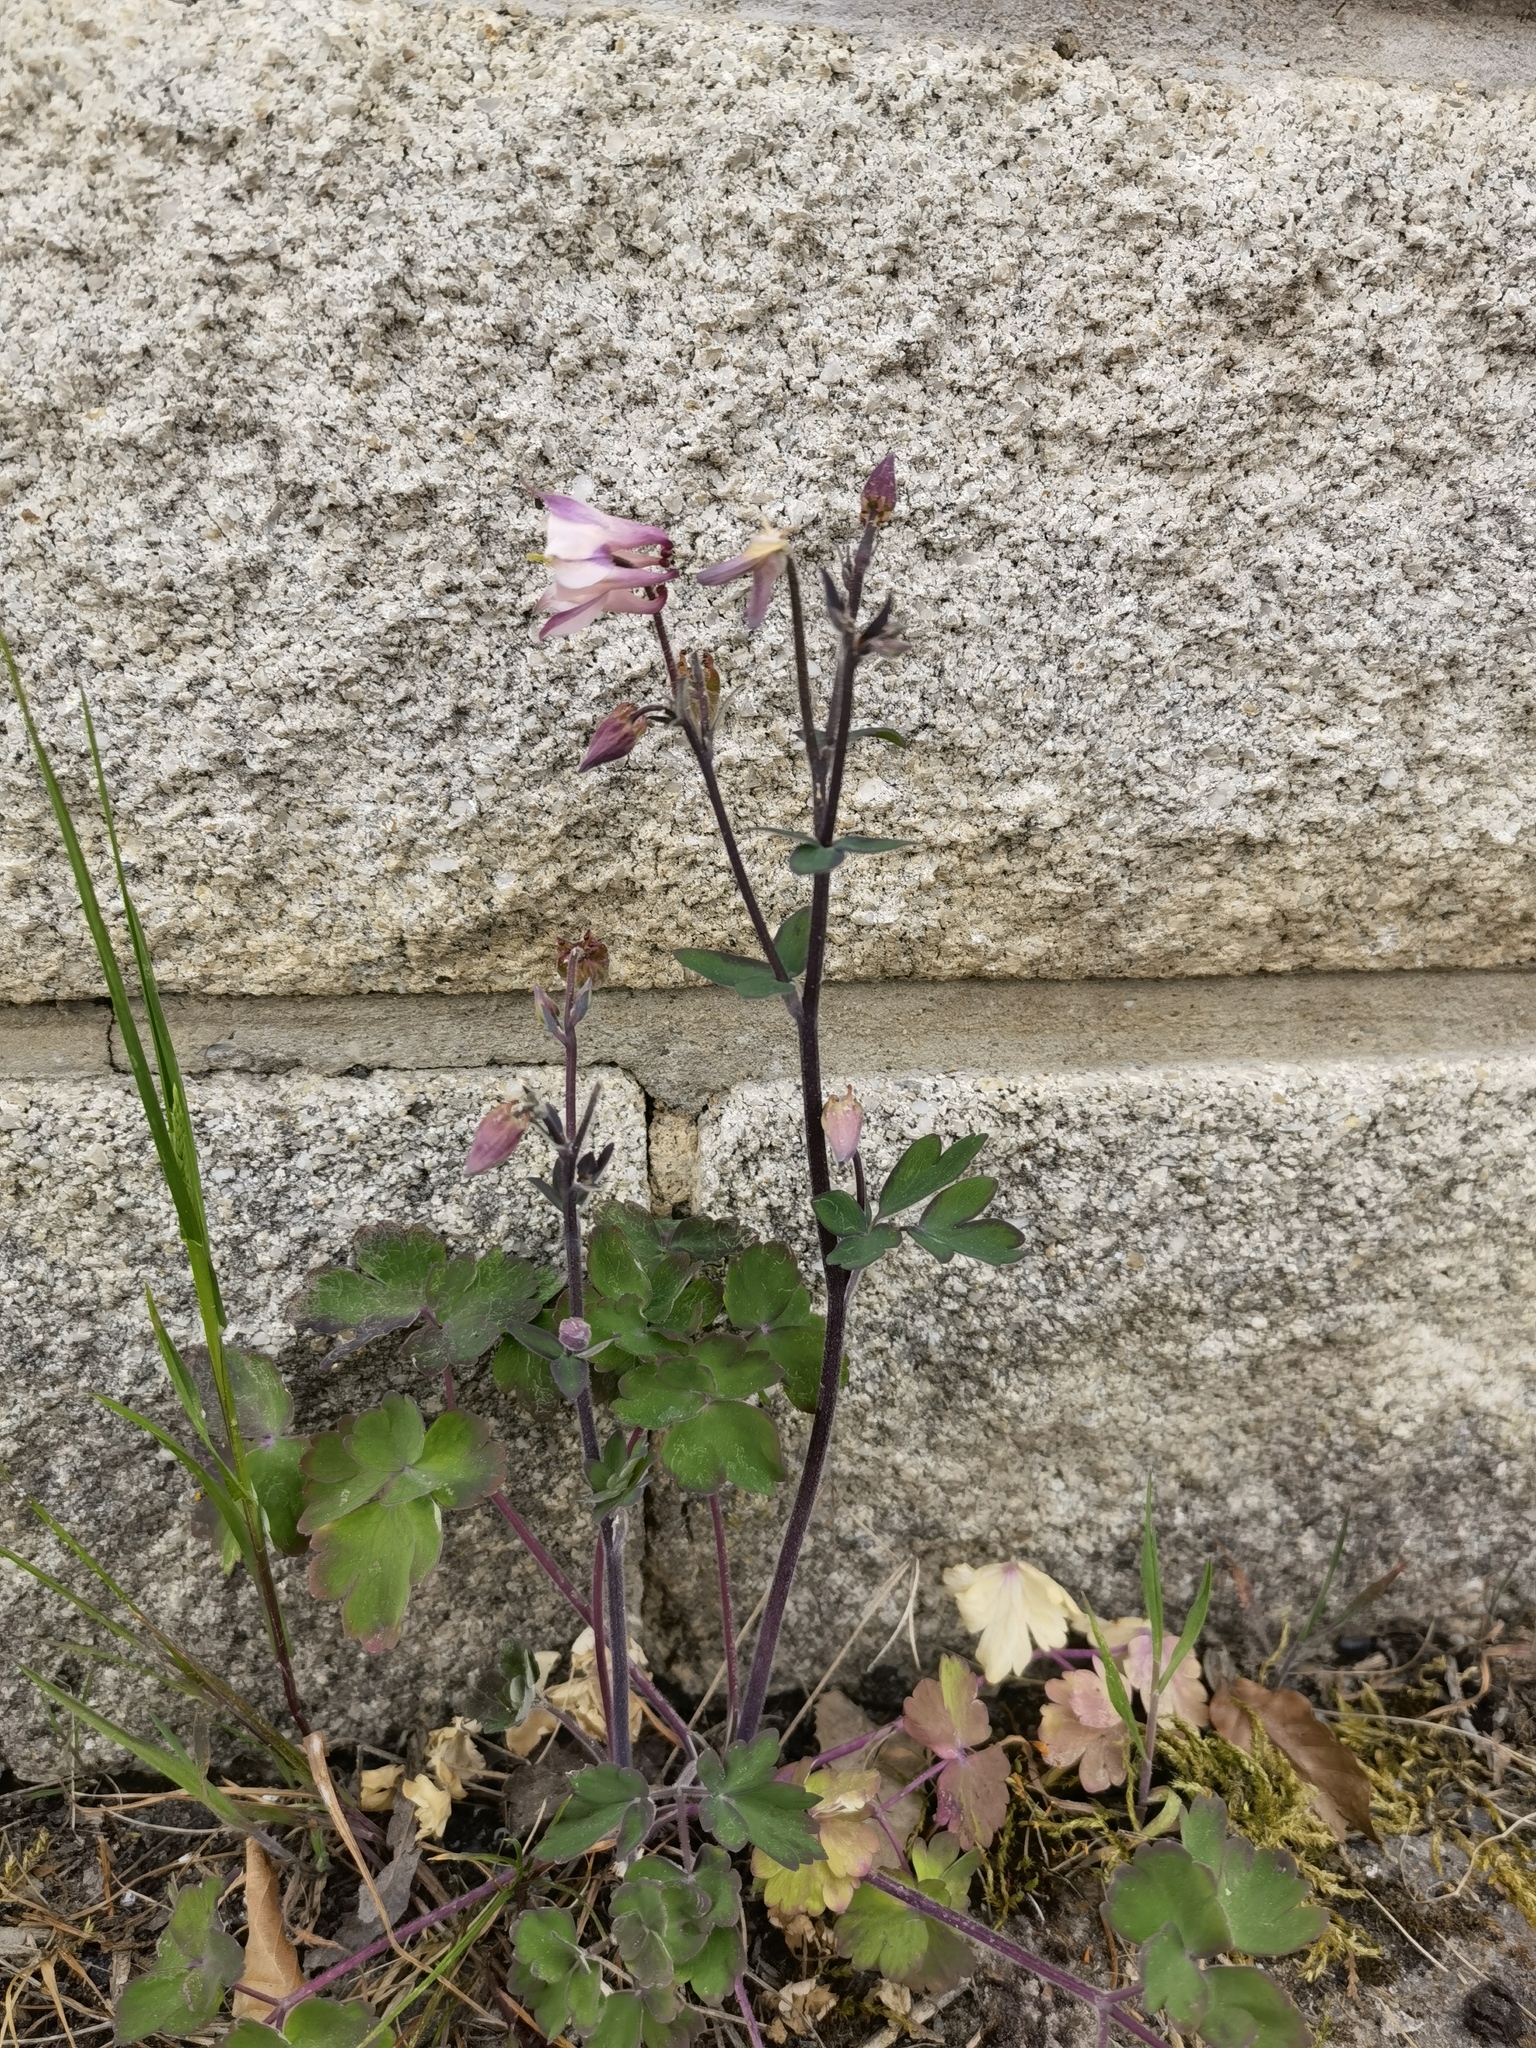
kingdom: Plantae
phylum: Tracheophyta
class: Magnoliopsida
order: Ranunculales
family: Ranunculaceae
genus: Aquilegia
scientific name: Aquilegia vulgaris
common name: Columbine
